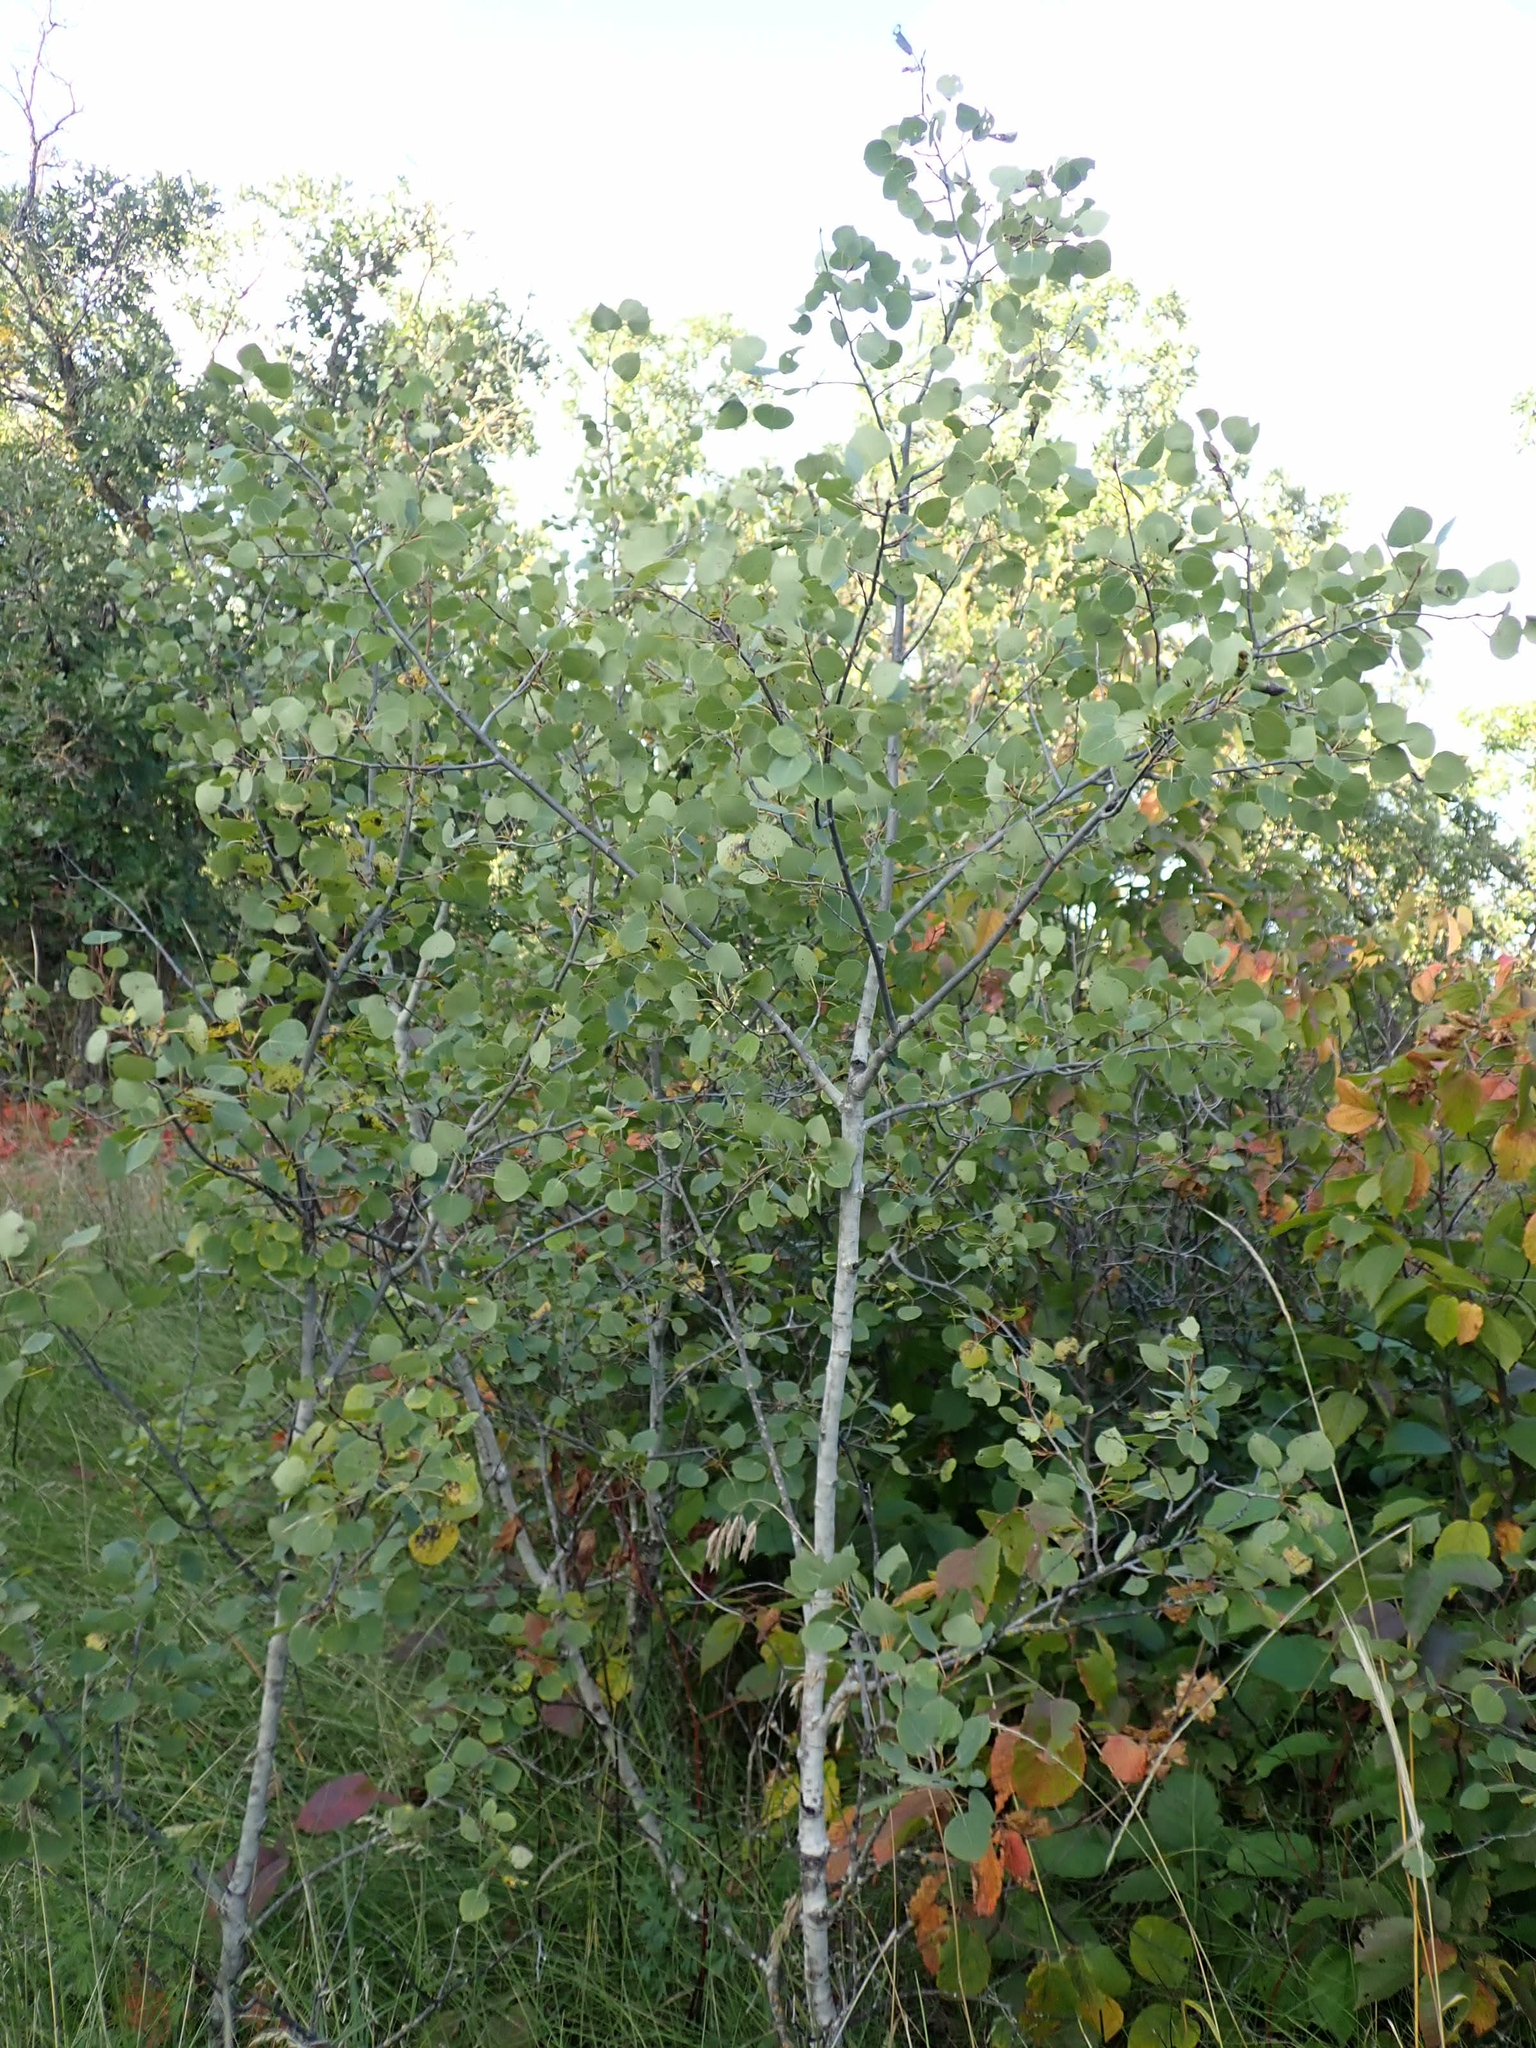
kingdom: Plantae
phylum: Tracheophyta
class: Magnoliopsida
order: Malpighiales
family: Salicaceae
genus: Populus
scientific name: Populus tremuloides
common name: Quaking aspen
